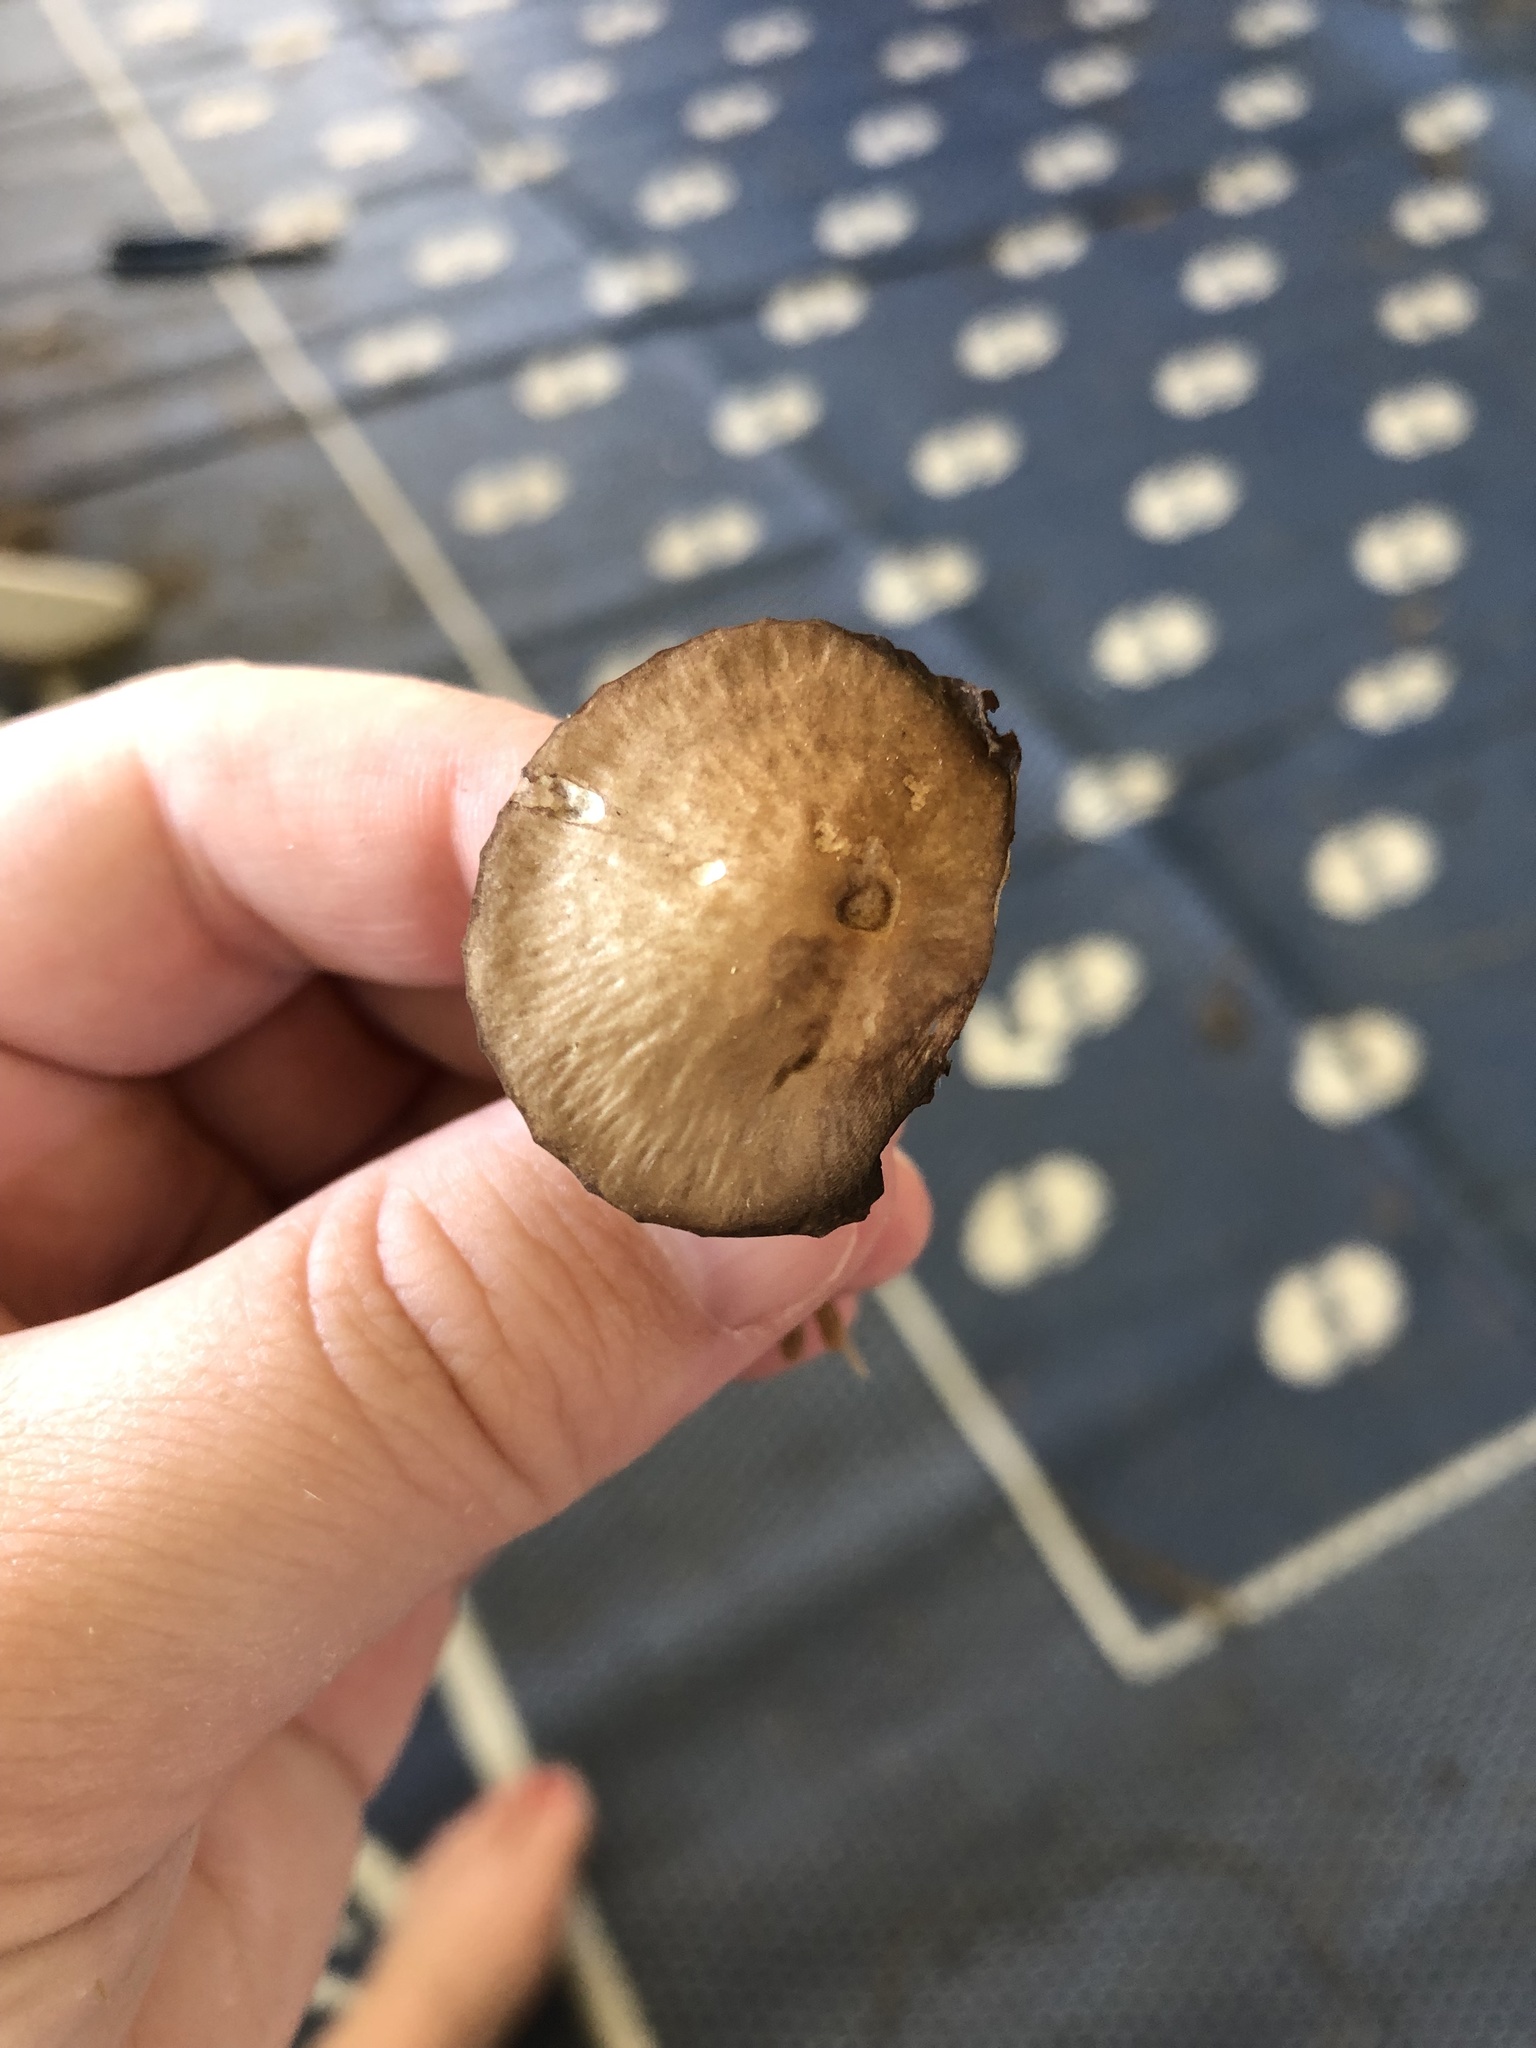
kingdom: Fungi
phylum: Basidiomycota
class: Agaricomycetes
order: Agaricales
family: Bolbitiaceae
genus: Panaeolina
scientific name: Panaeolina foenisecii
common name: Brown hay cap
